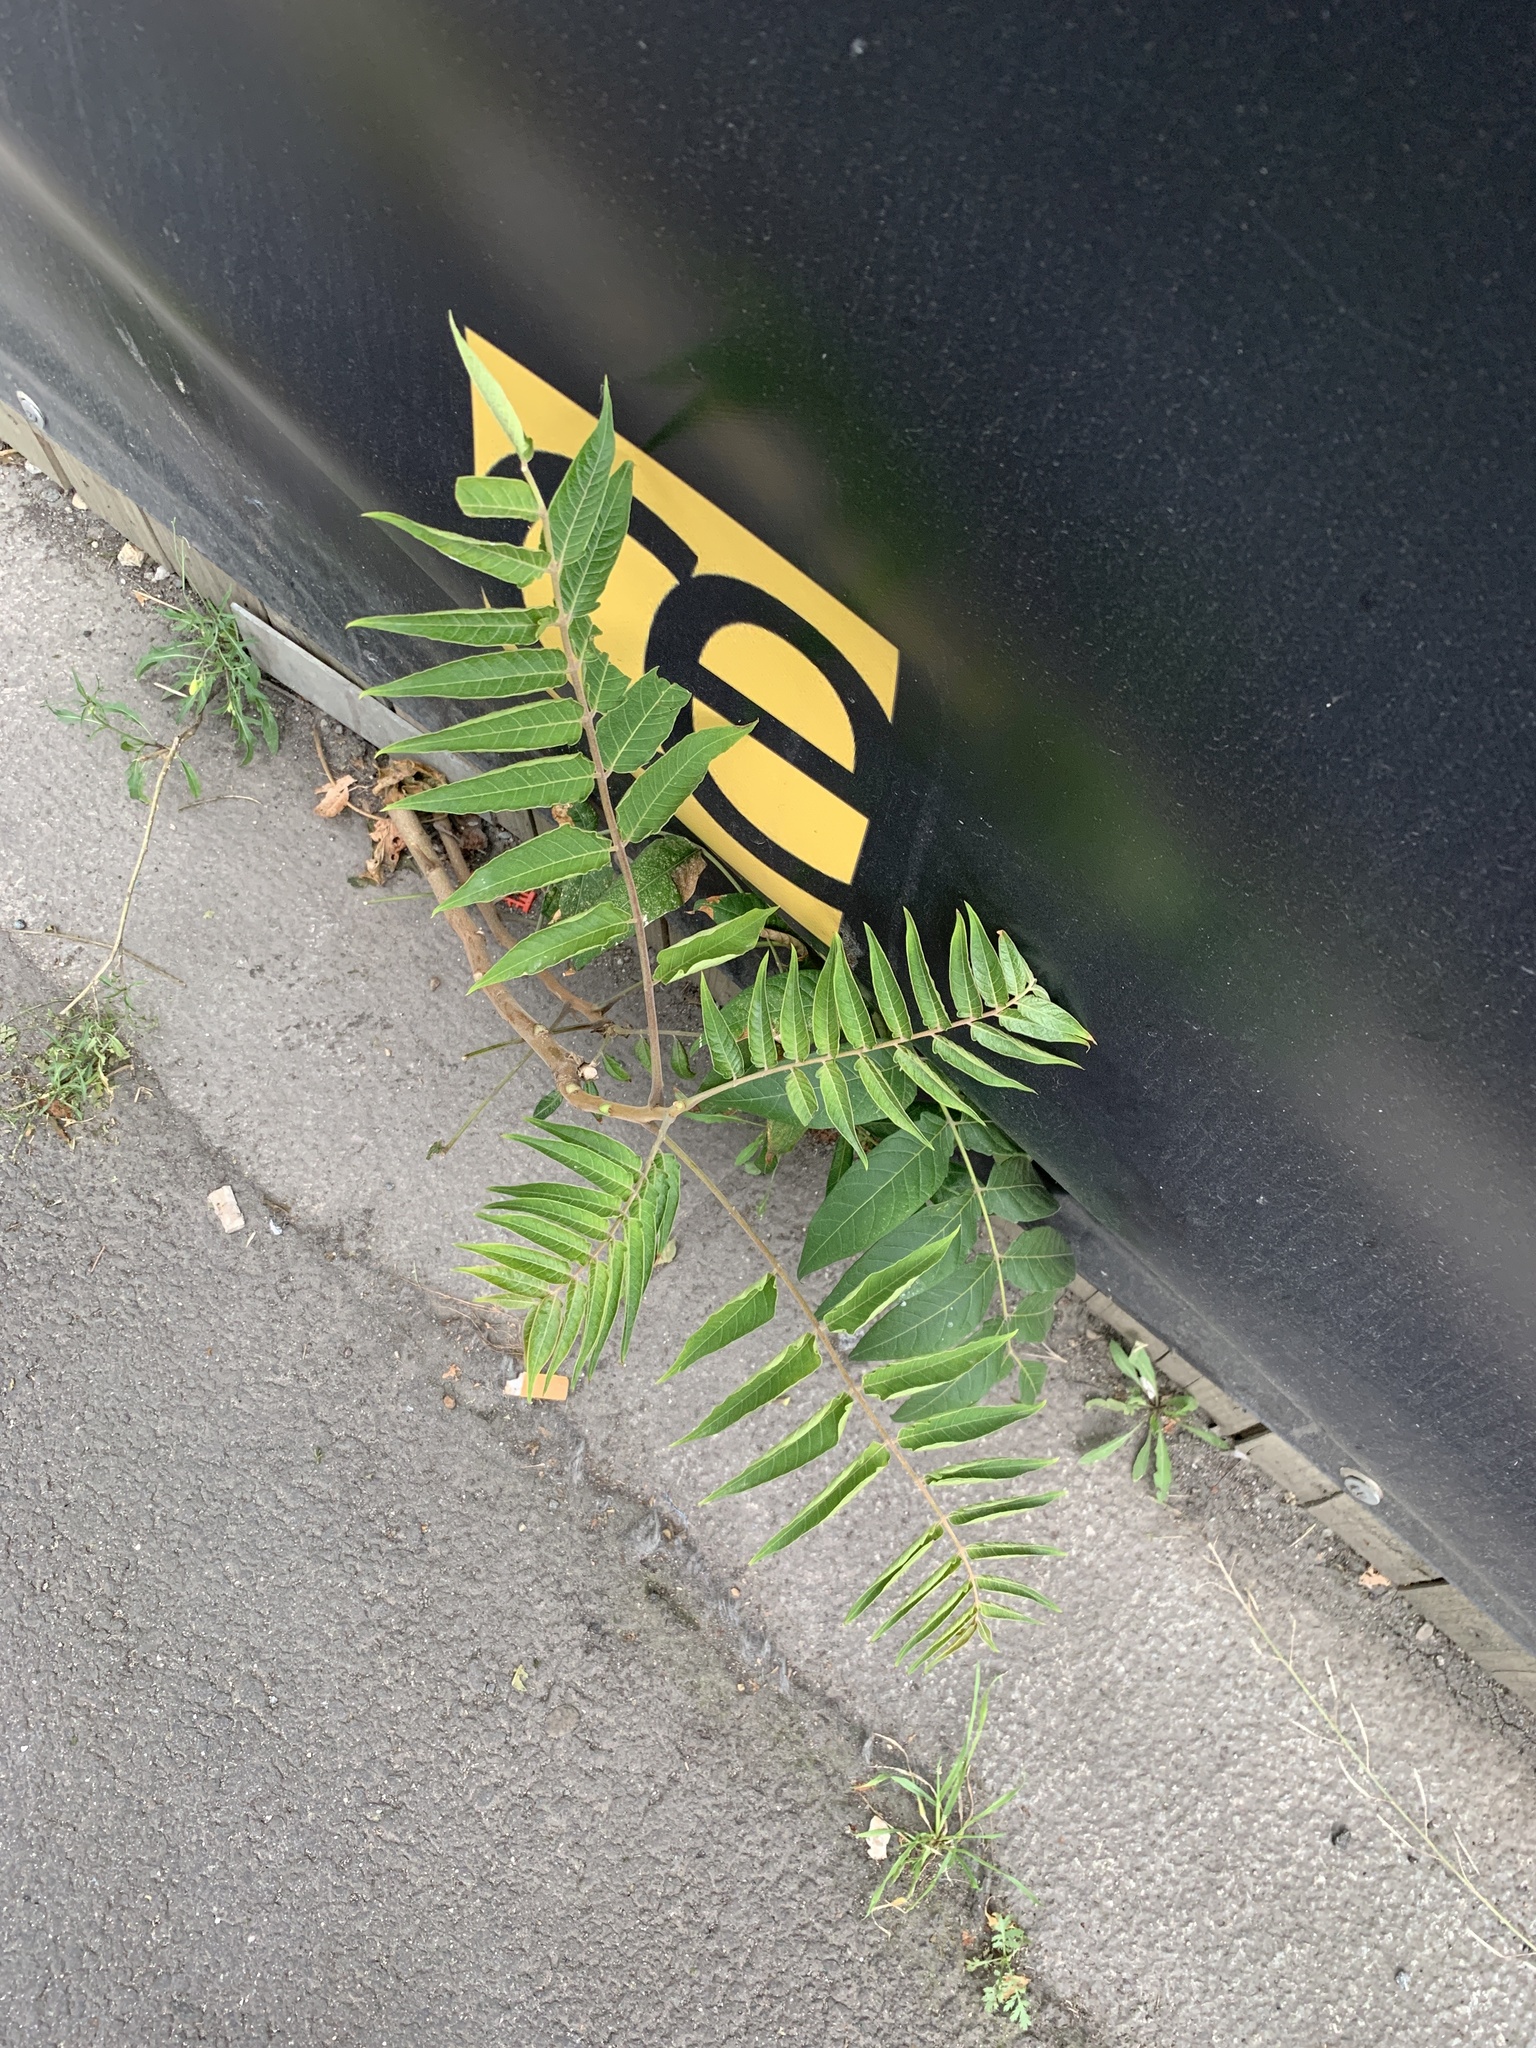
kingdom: Plantae
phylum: Tracheophyta
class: Magnoliopsida
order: Sapindales
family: Simaroubaceae
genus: Ailanthus
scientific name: Ailanthus altissima
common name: Tree-of-heaven
